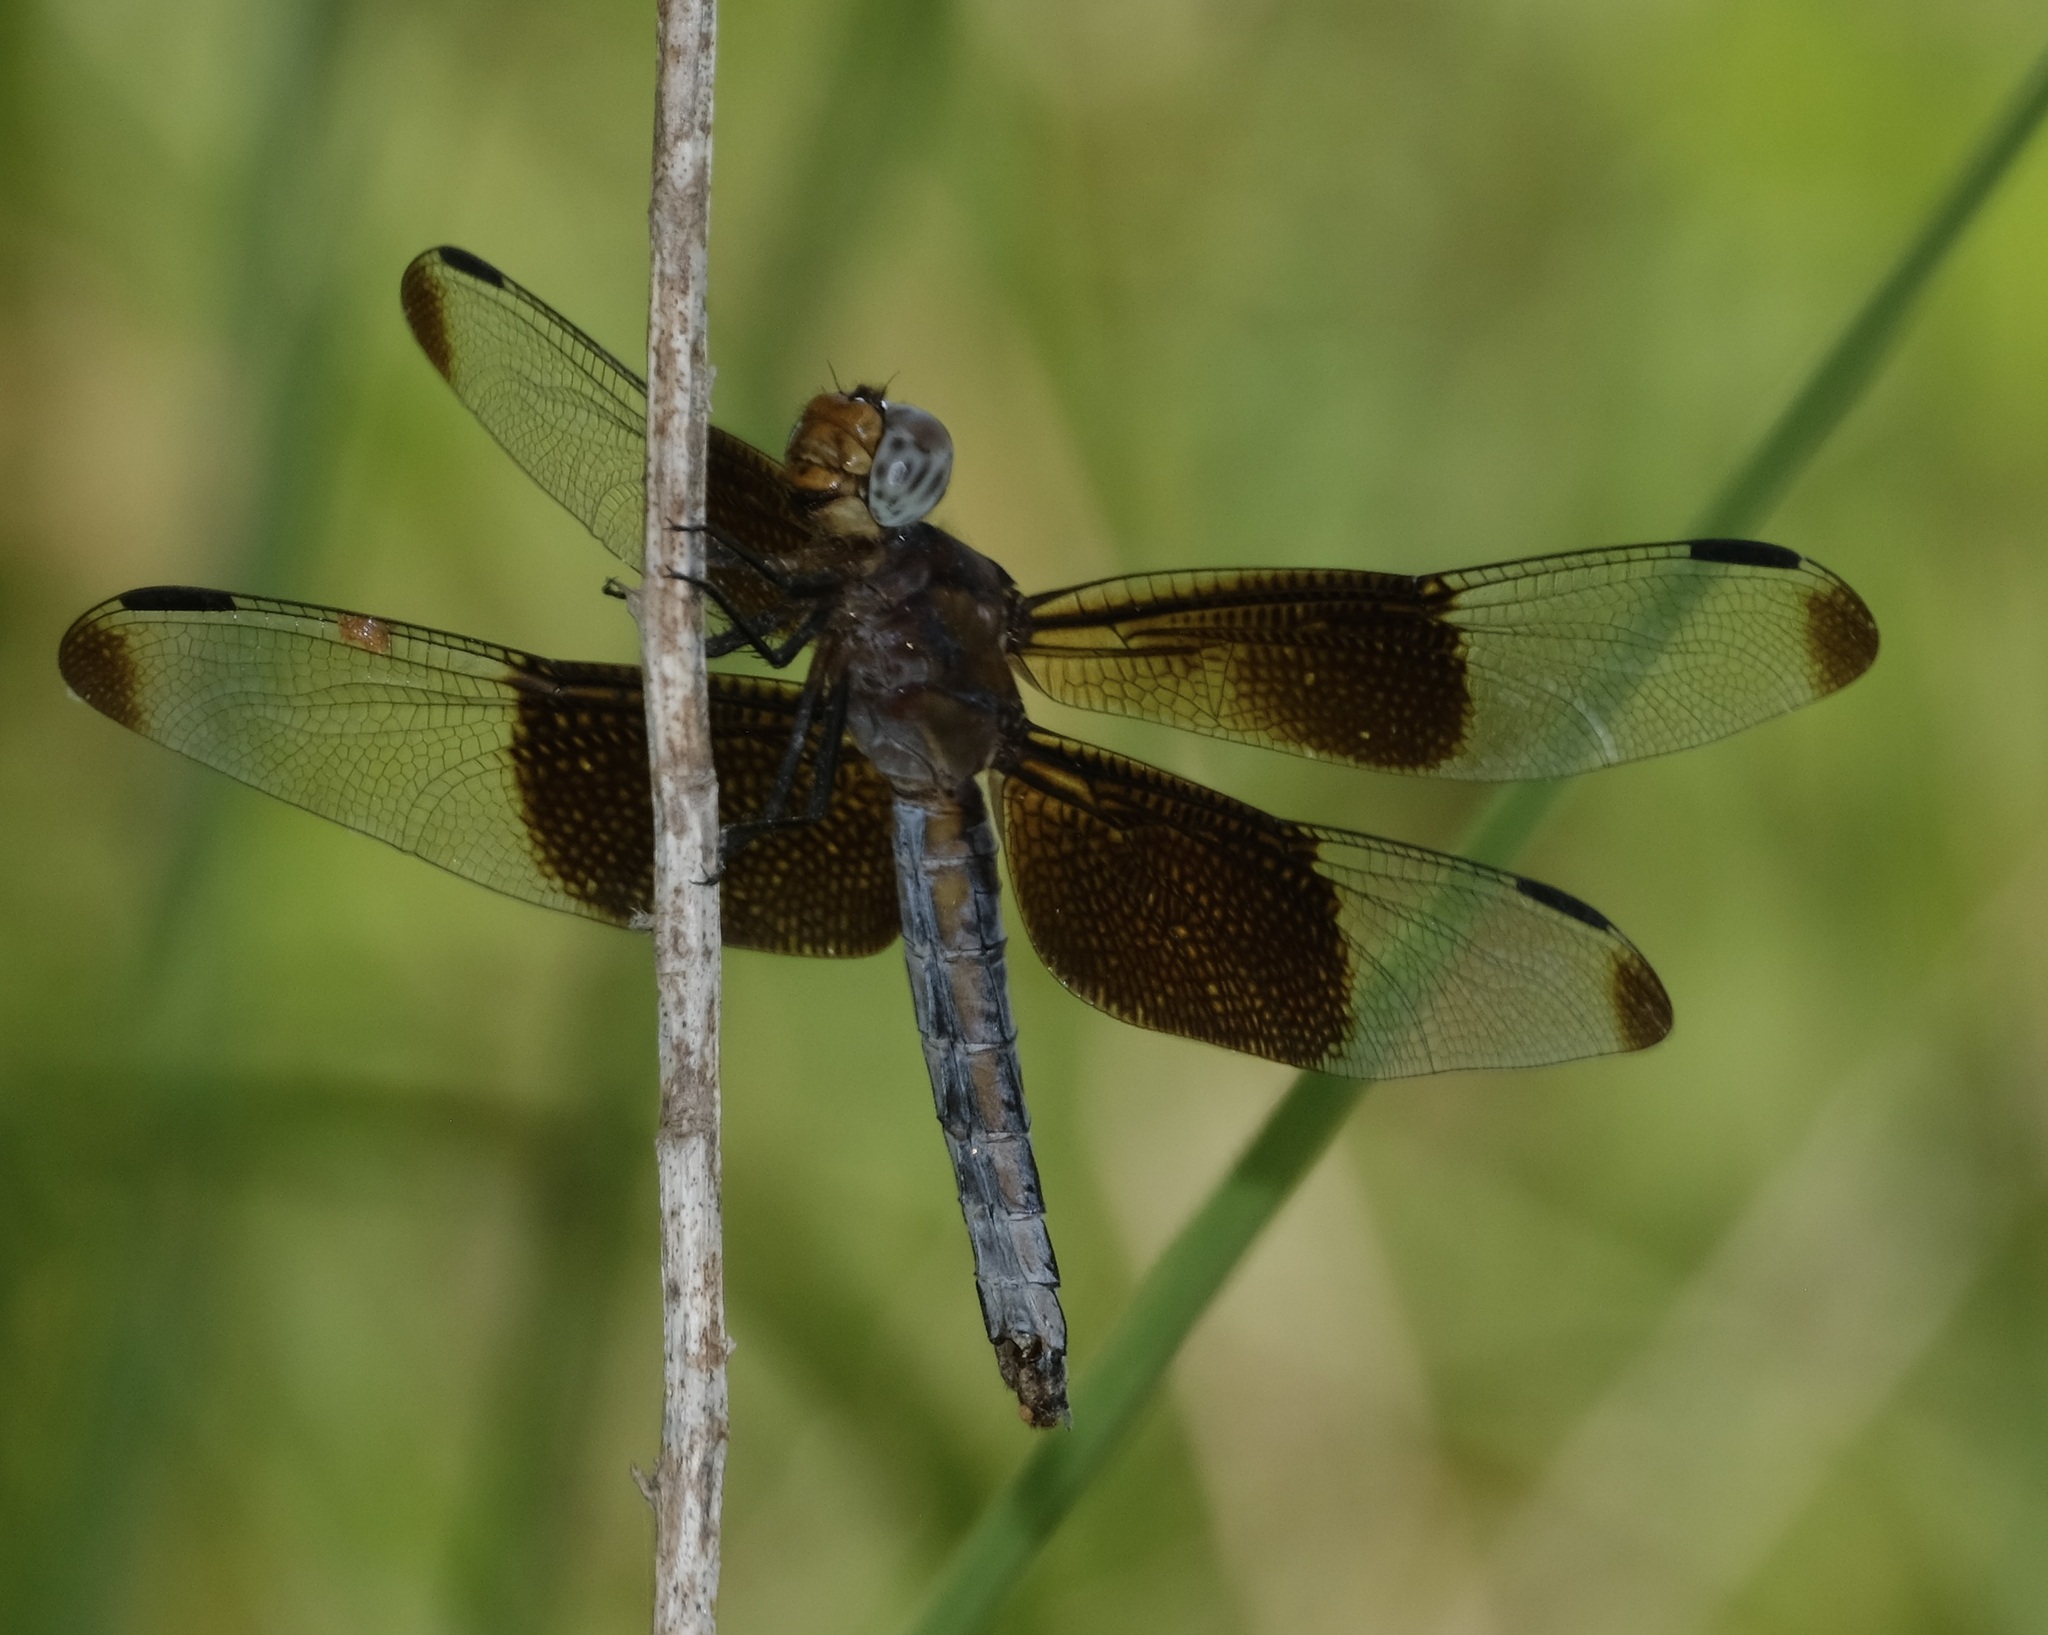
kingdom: Animalia
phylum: Arthropoda
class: Insecta
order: Odonata
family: Libellulidae
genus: Libellula
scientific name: Libellula luctuosa
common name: Widow skimmer
